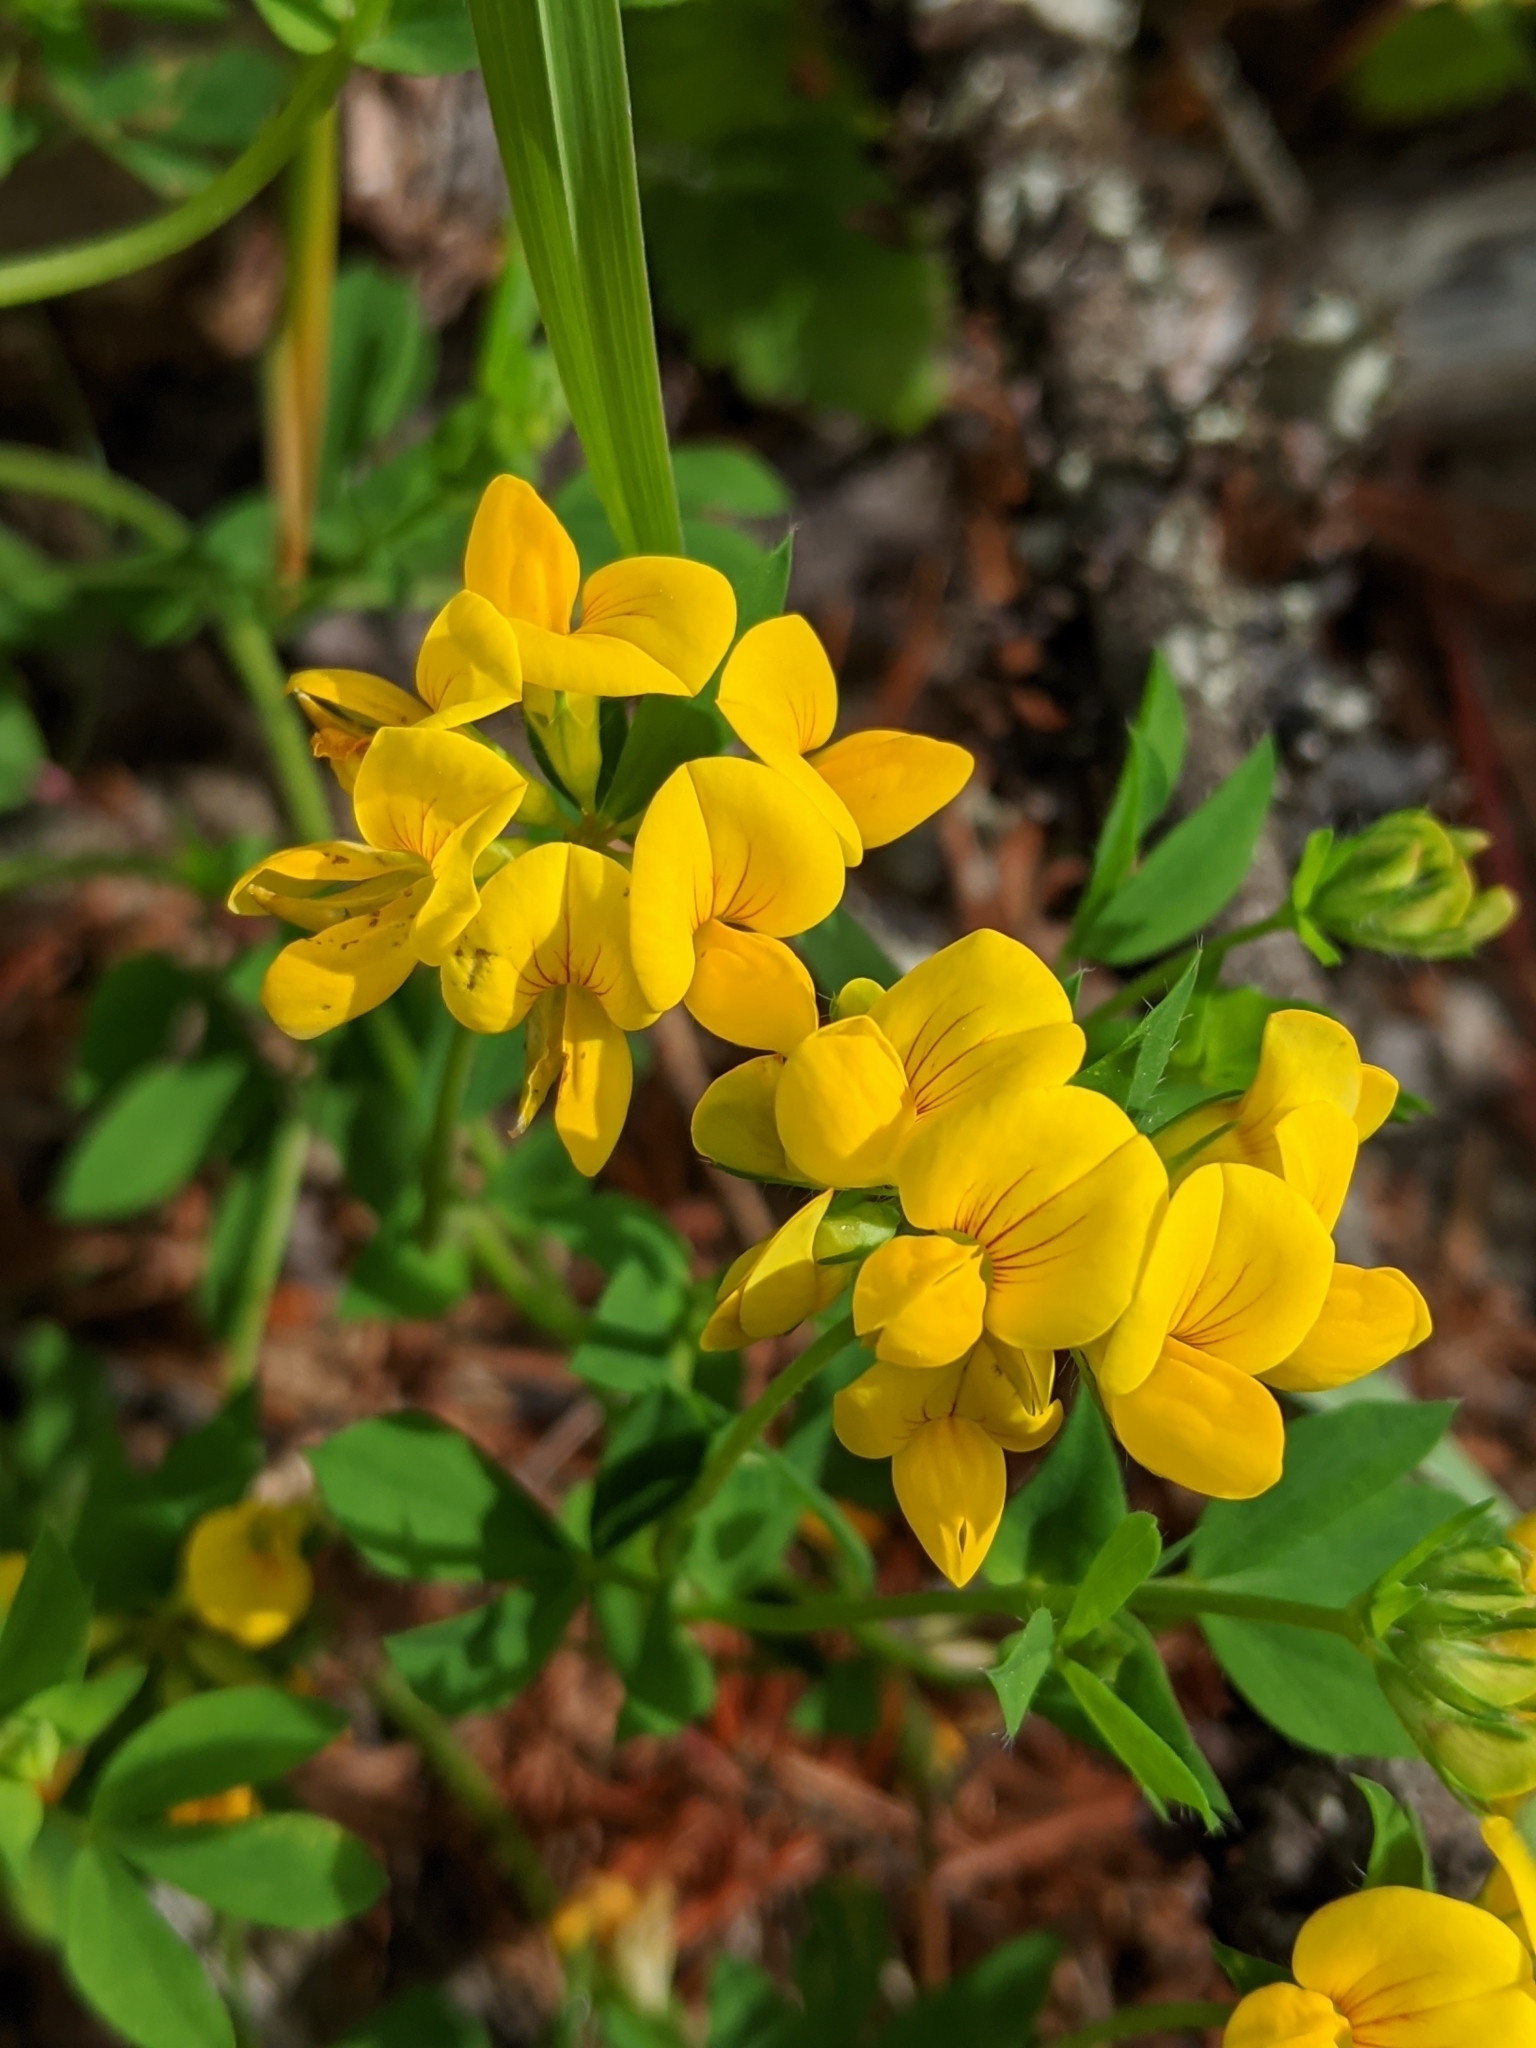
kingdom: Plantae
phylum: Tracheophyta
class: Magnoliopsida
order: Fabales
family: Fabaceae
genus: Lotus
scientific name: Lotus corniculatus
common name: Common bird's-foot-trefoil
